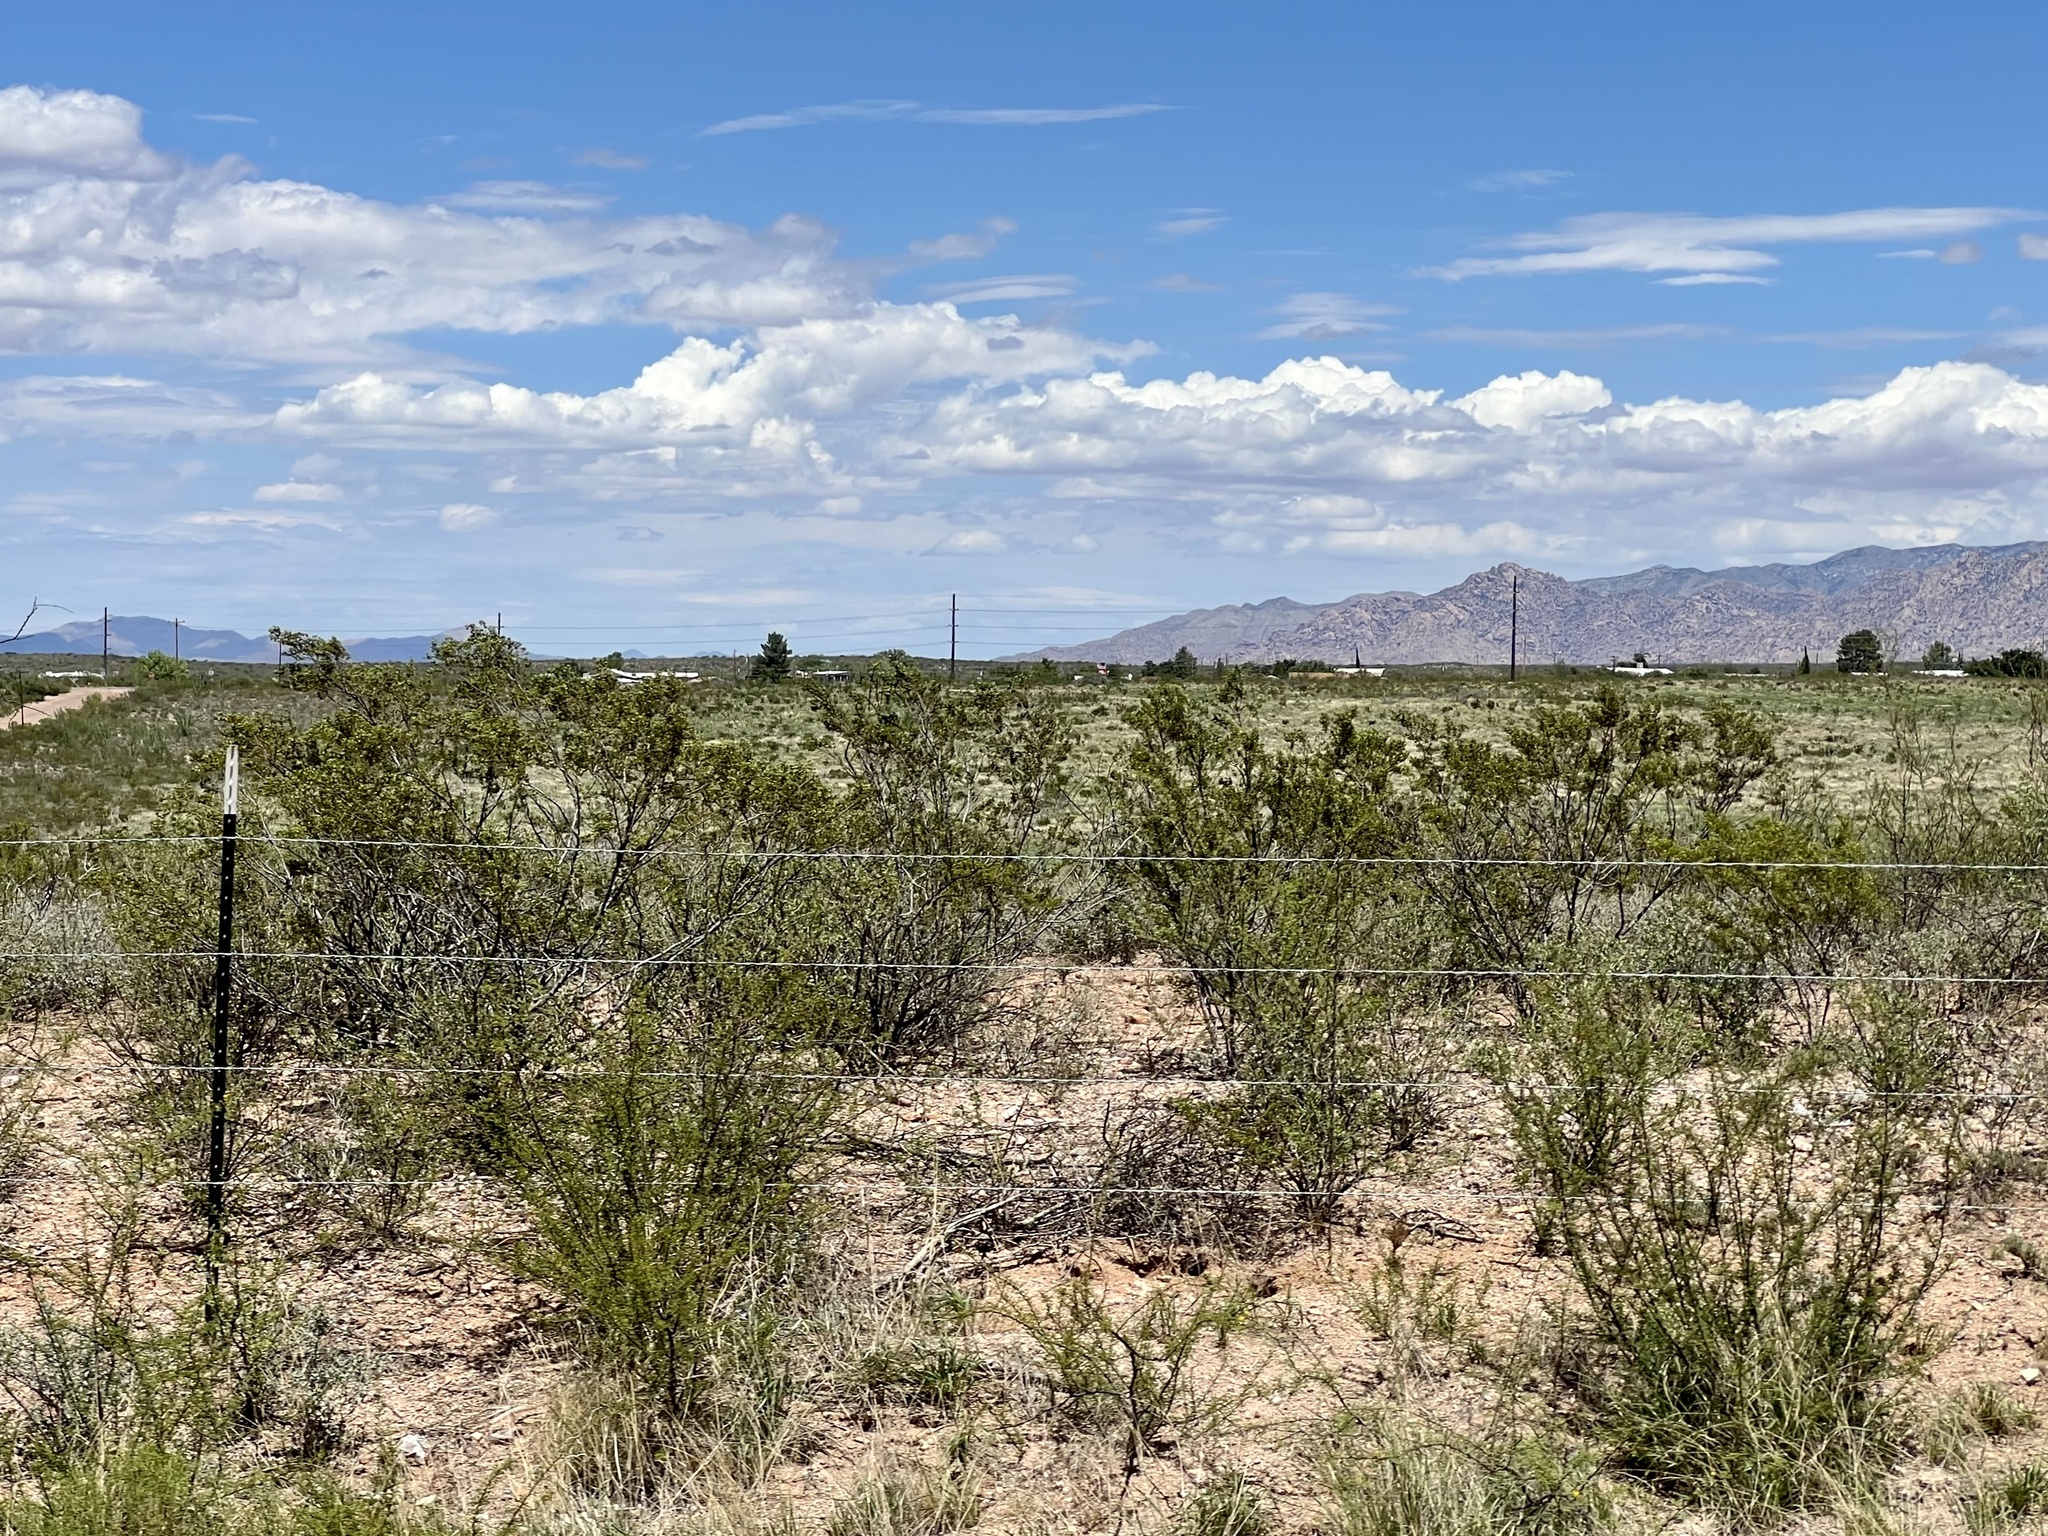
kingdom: Plantae
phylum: Tracheophyta
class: Magnoliopsida
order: Zygophyllales
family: Zygophyllaceae
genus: Larrea
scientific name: Larrea tridentata
